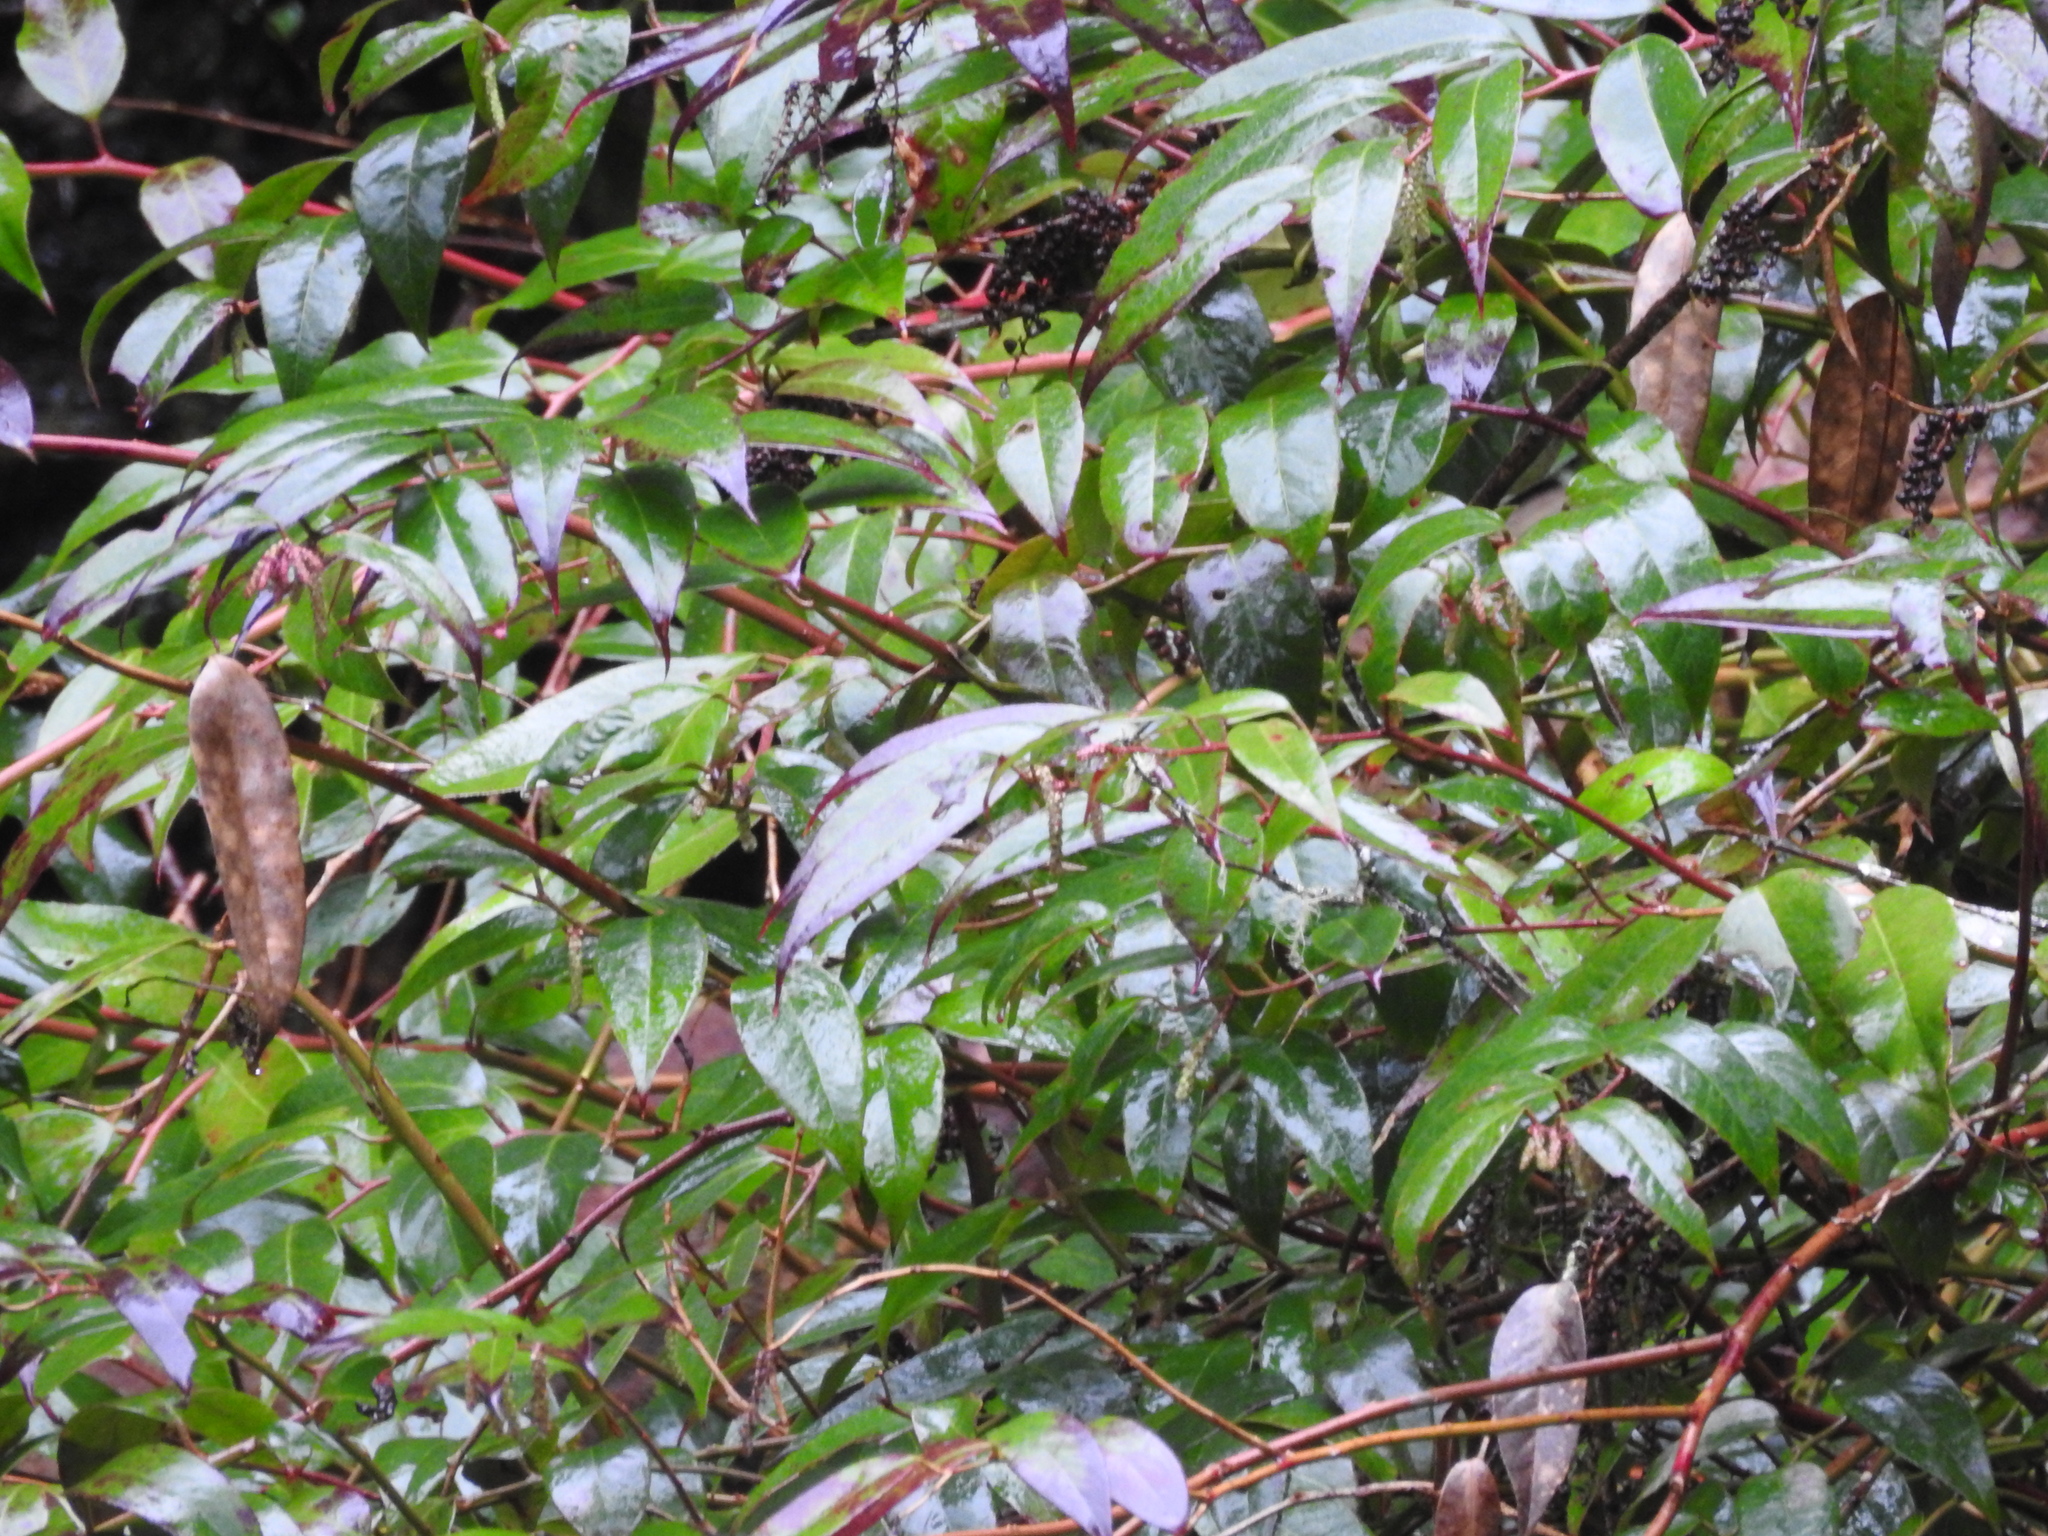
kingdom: Plantae
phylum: Tracheophyta
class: Magnoliopsida
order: Ericales
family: Ericaceae
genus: Leucothoe
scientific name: Leucothoe fontanesiana
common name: Fetterbush
